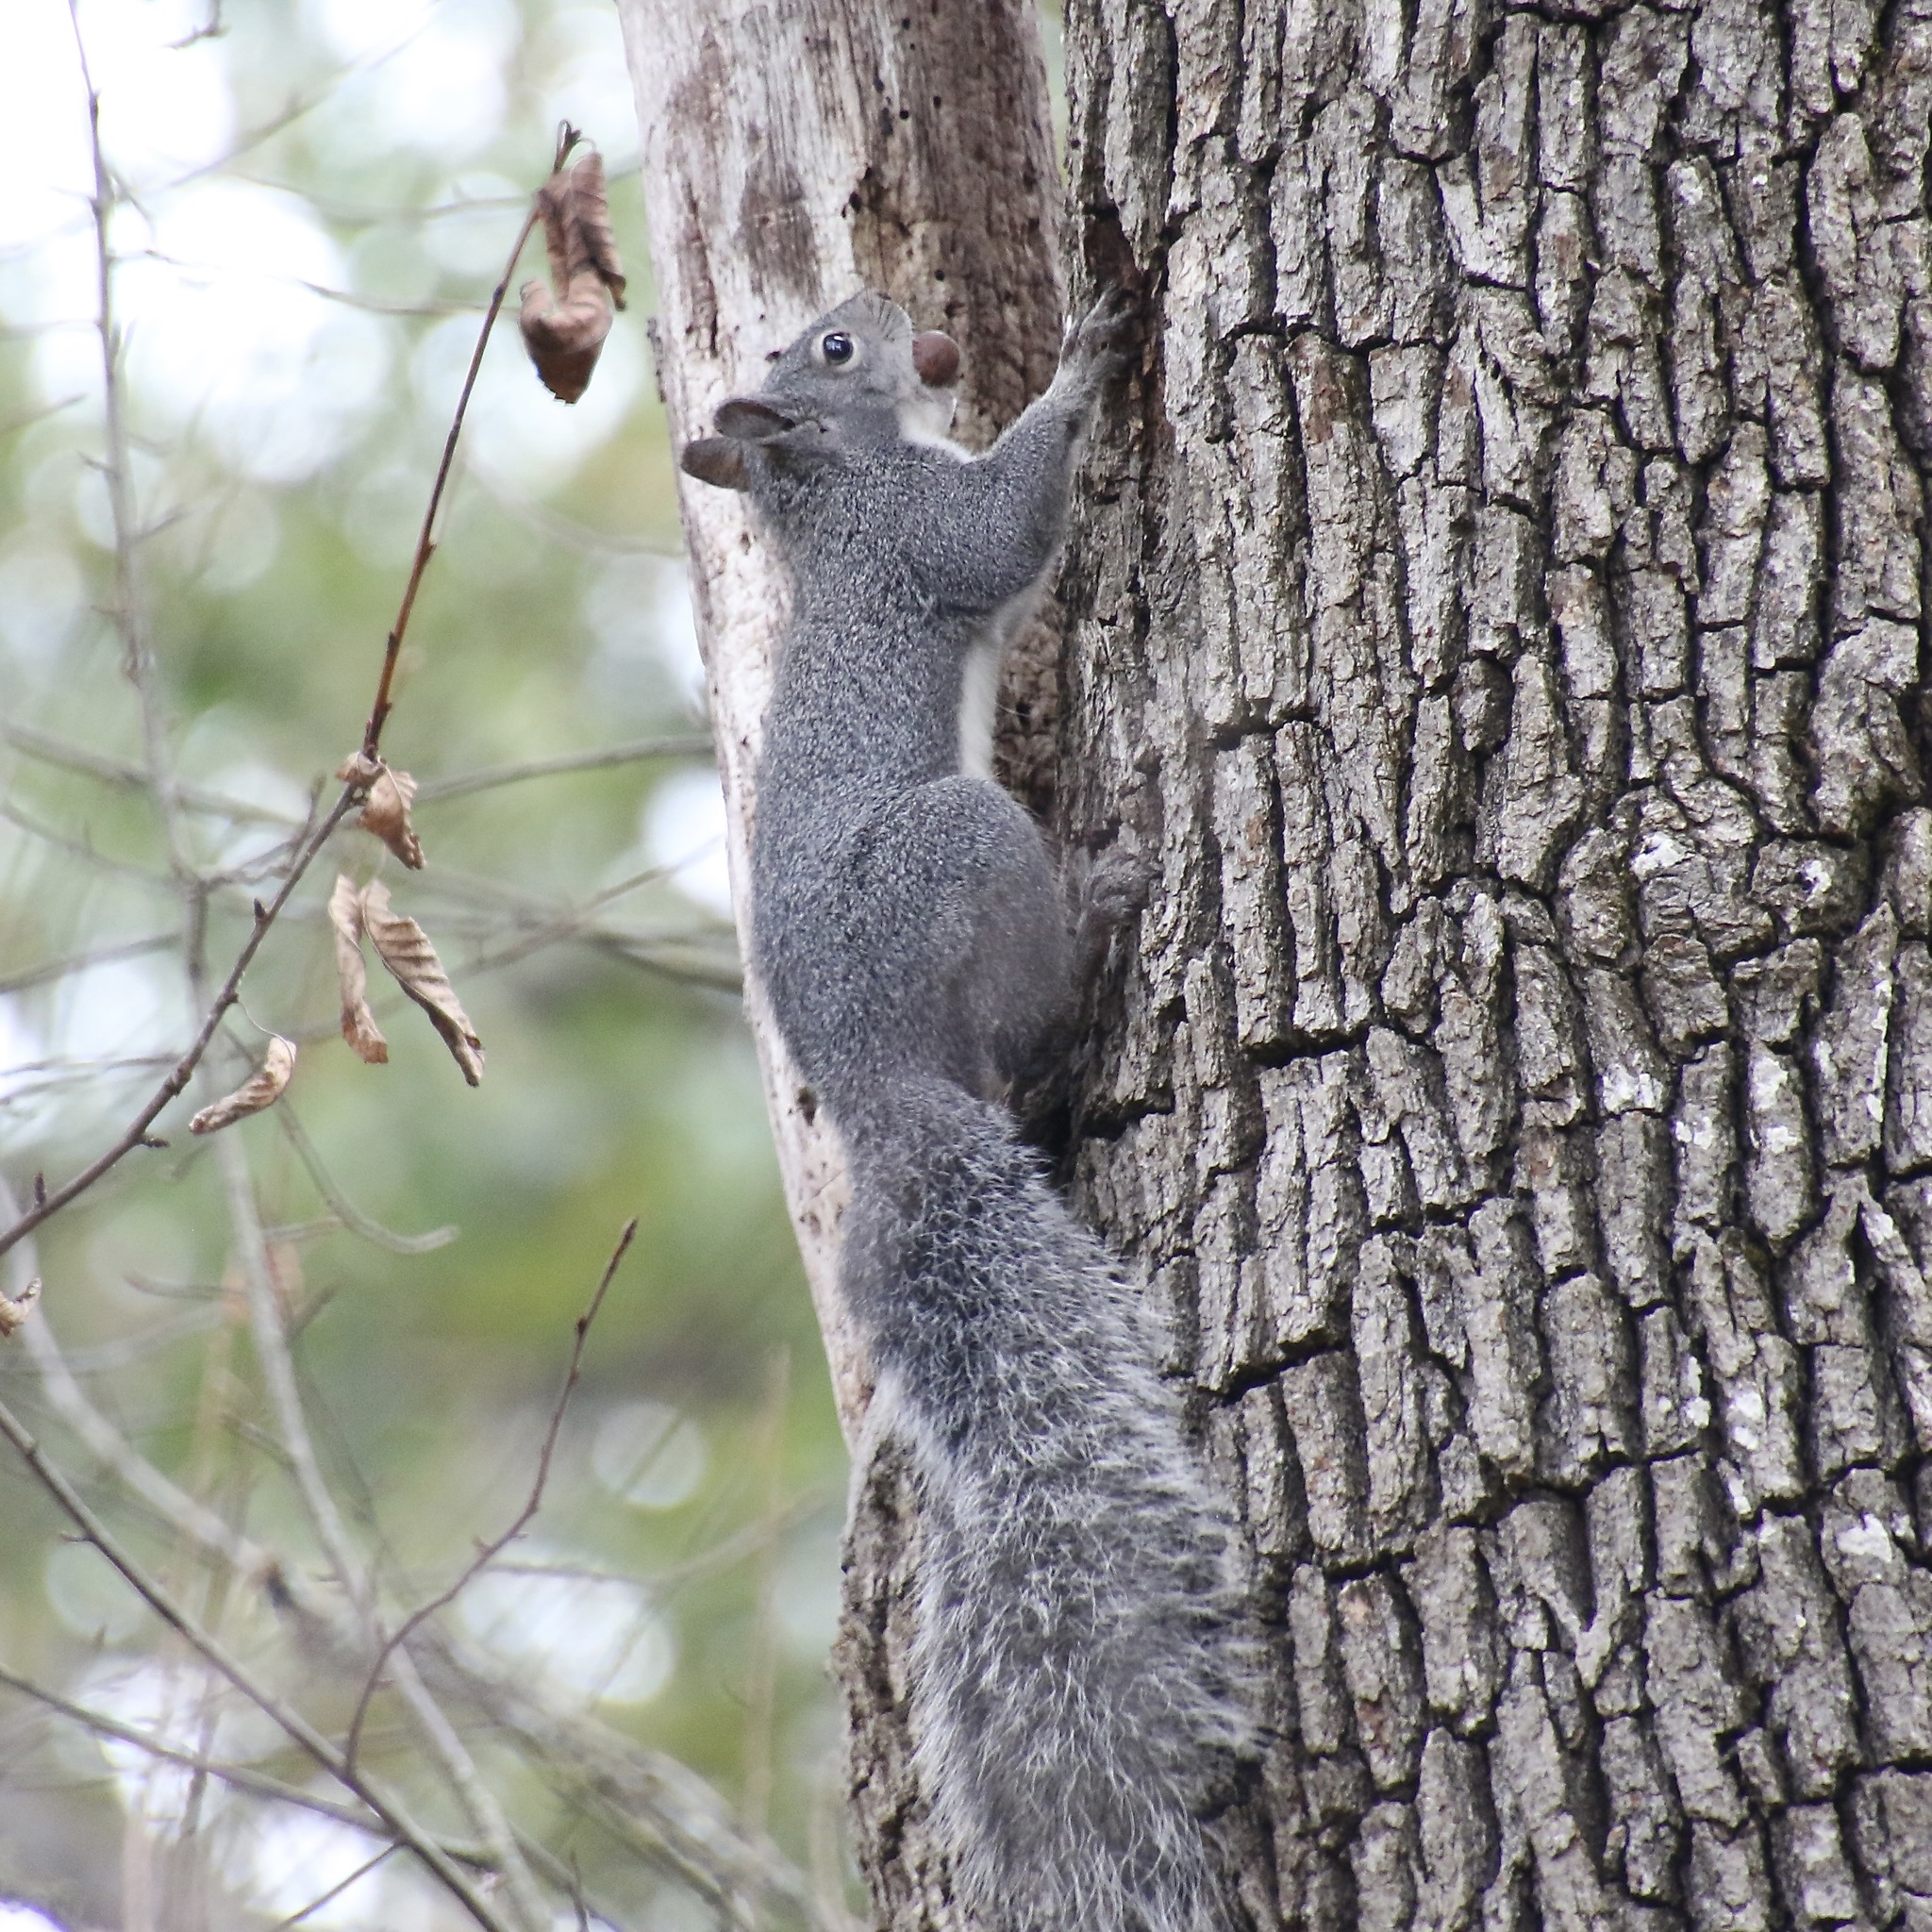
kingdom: Animalia
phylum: Chordata
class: Mammalia
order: Rodentia
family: Sciuridae
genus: Sciurus
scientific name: Sciurus griseus
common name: Western gray squirrel
